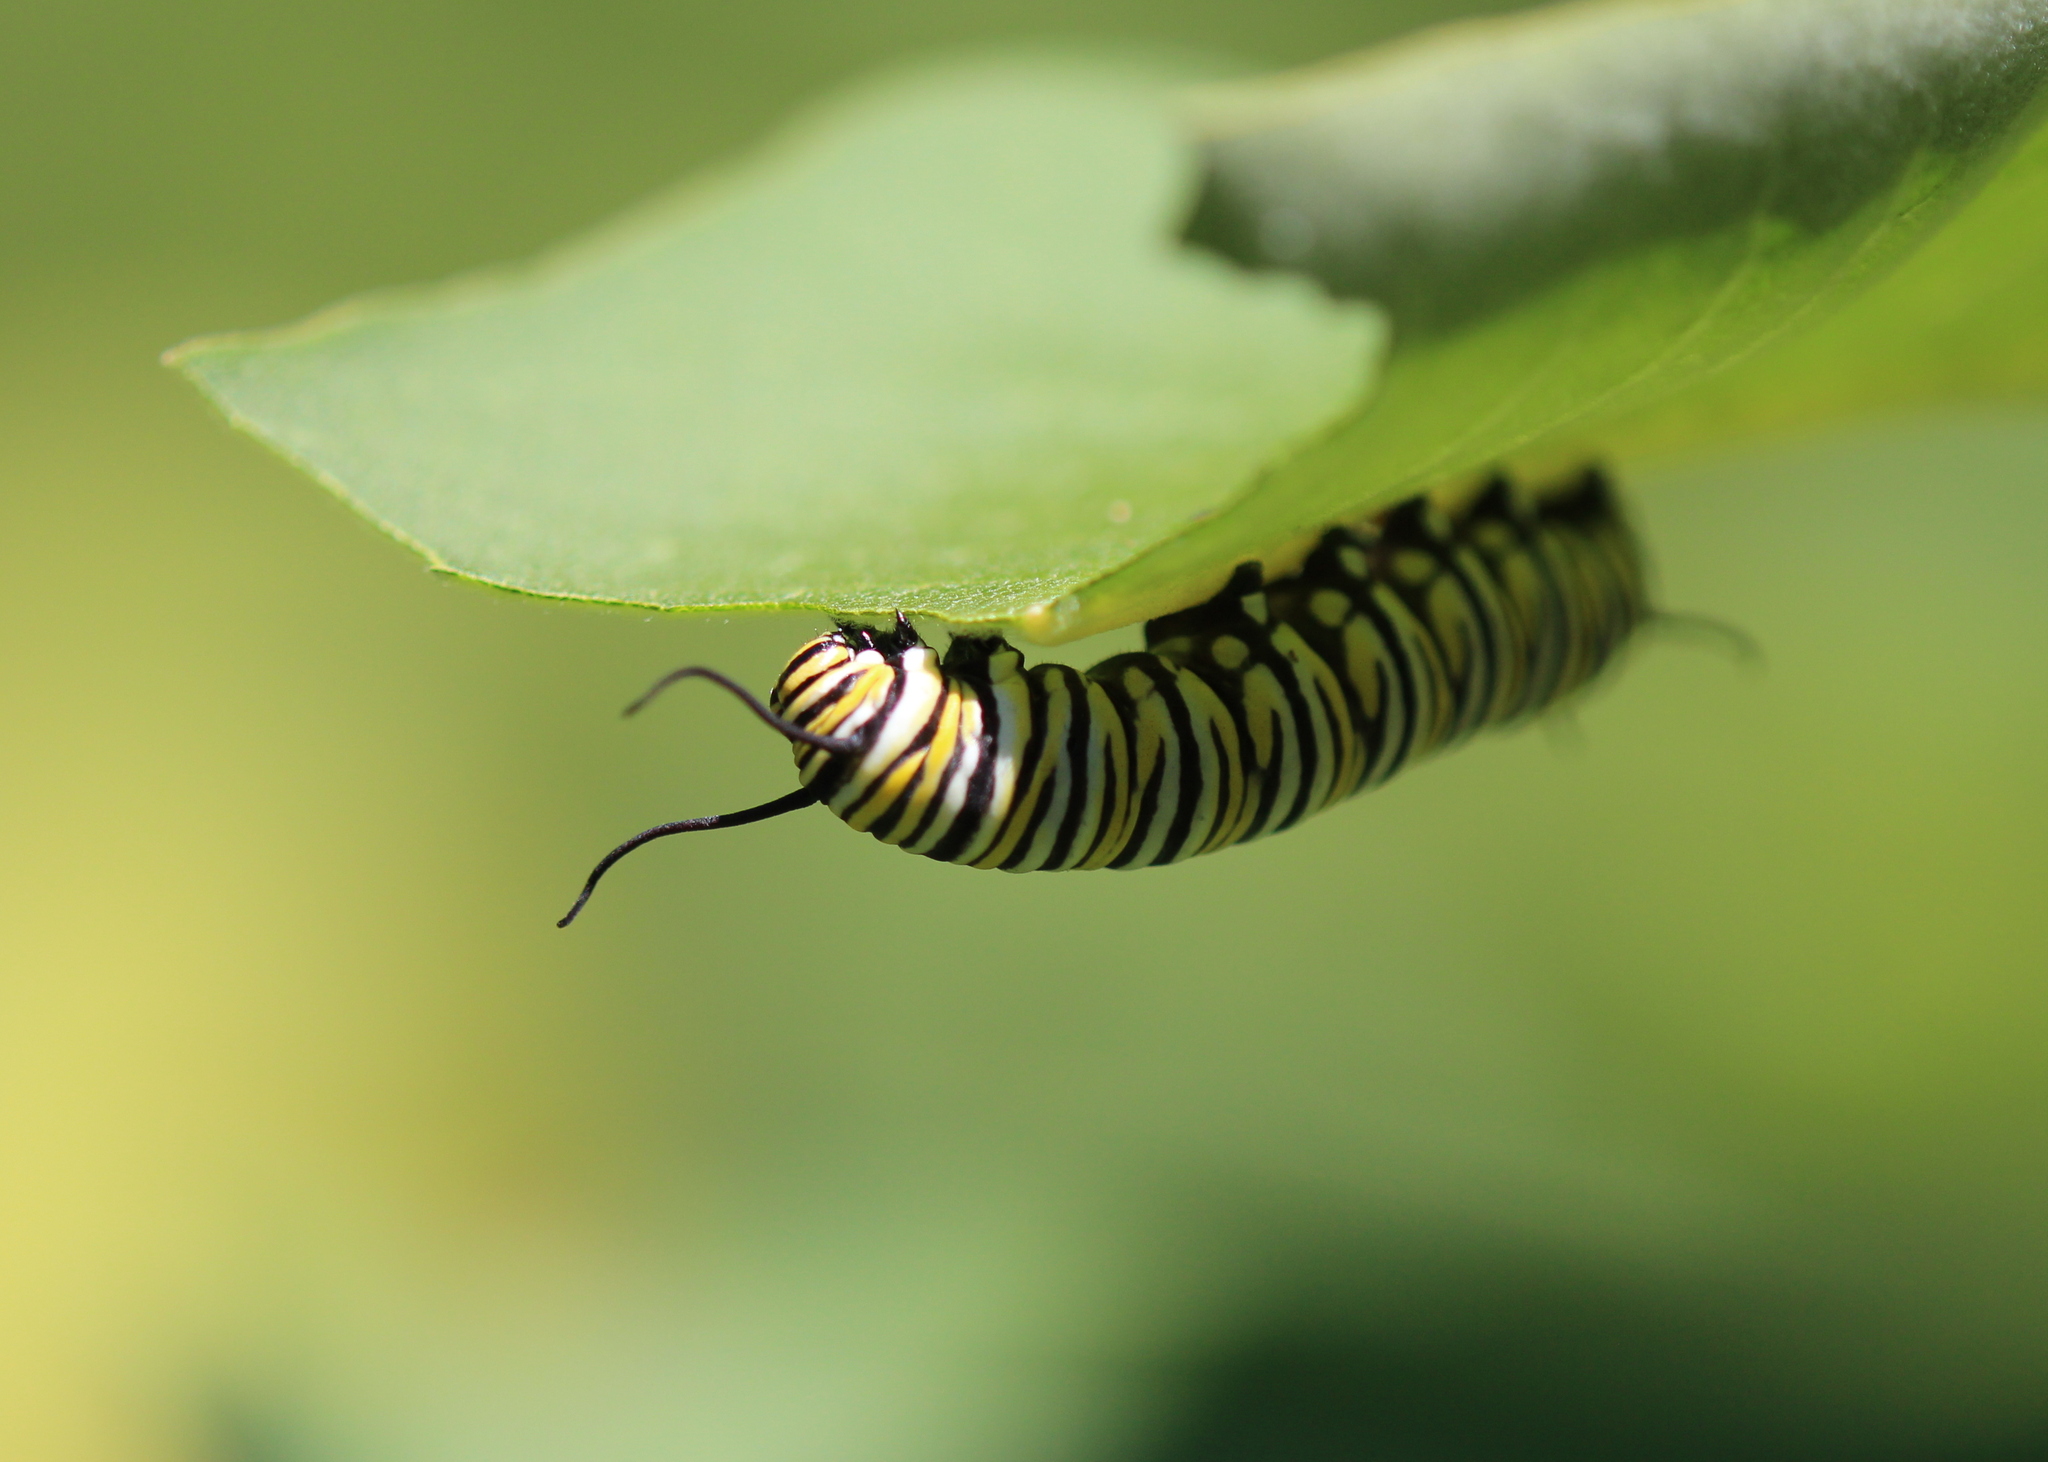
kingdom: Animalia
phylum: Arthropoda
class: Insecta
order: Lepidoptera
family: Nymphalidae
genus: Danaus
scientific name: Danaus plexippus
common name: Monarch
